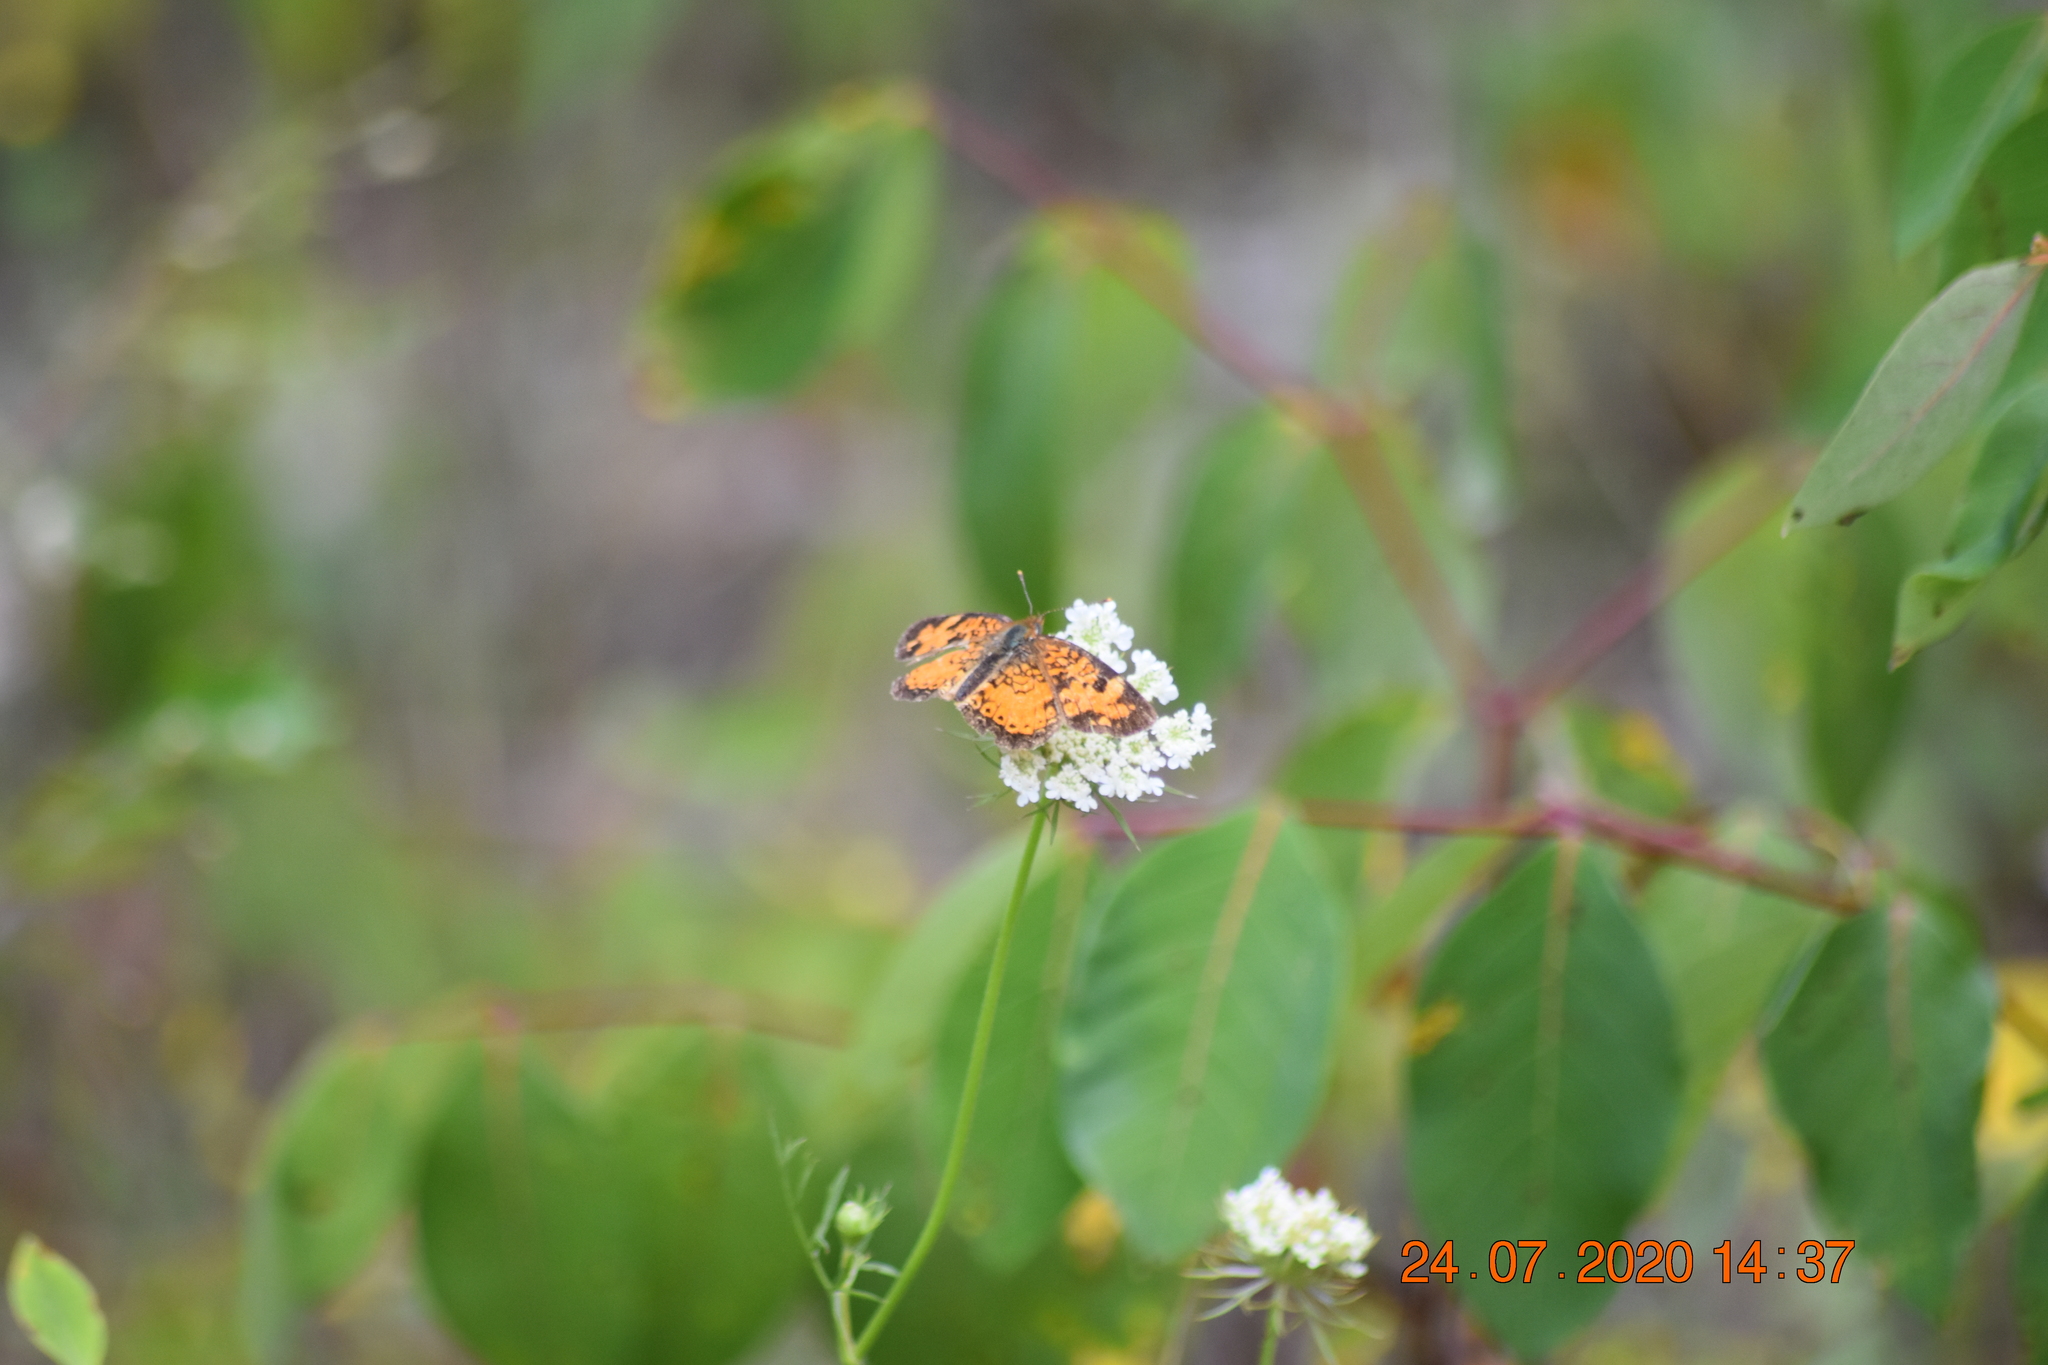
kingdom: Animalia
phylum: Arthropoda
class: Insecta
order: Lepidoptera
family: Nymphalidae
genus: Phyciodes
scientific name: Phyciodes tharos
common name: Pearl crescent
